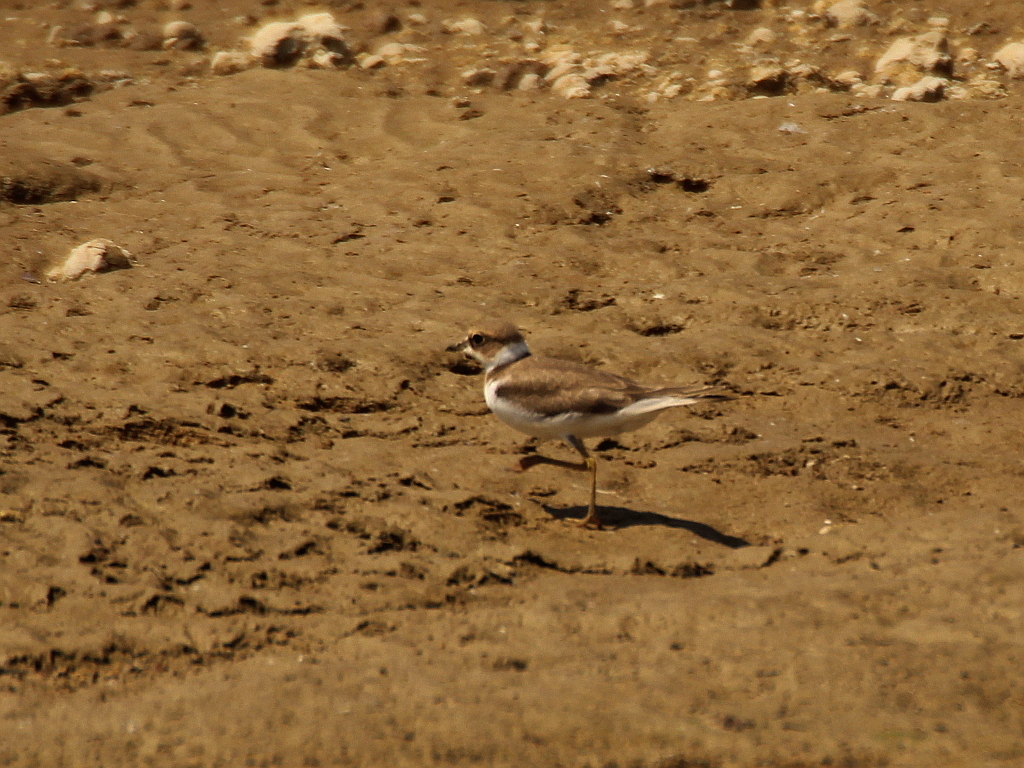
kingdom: Animalia
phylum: Chordata
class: Aves
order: Charadriiformes
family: Charadriidae
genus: Charadrius
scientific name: Charadrius dubius
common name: Little ringed plover
